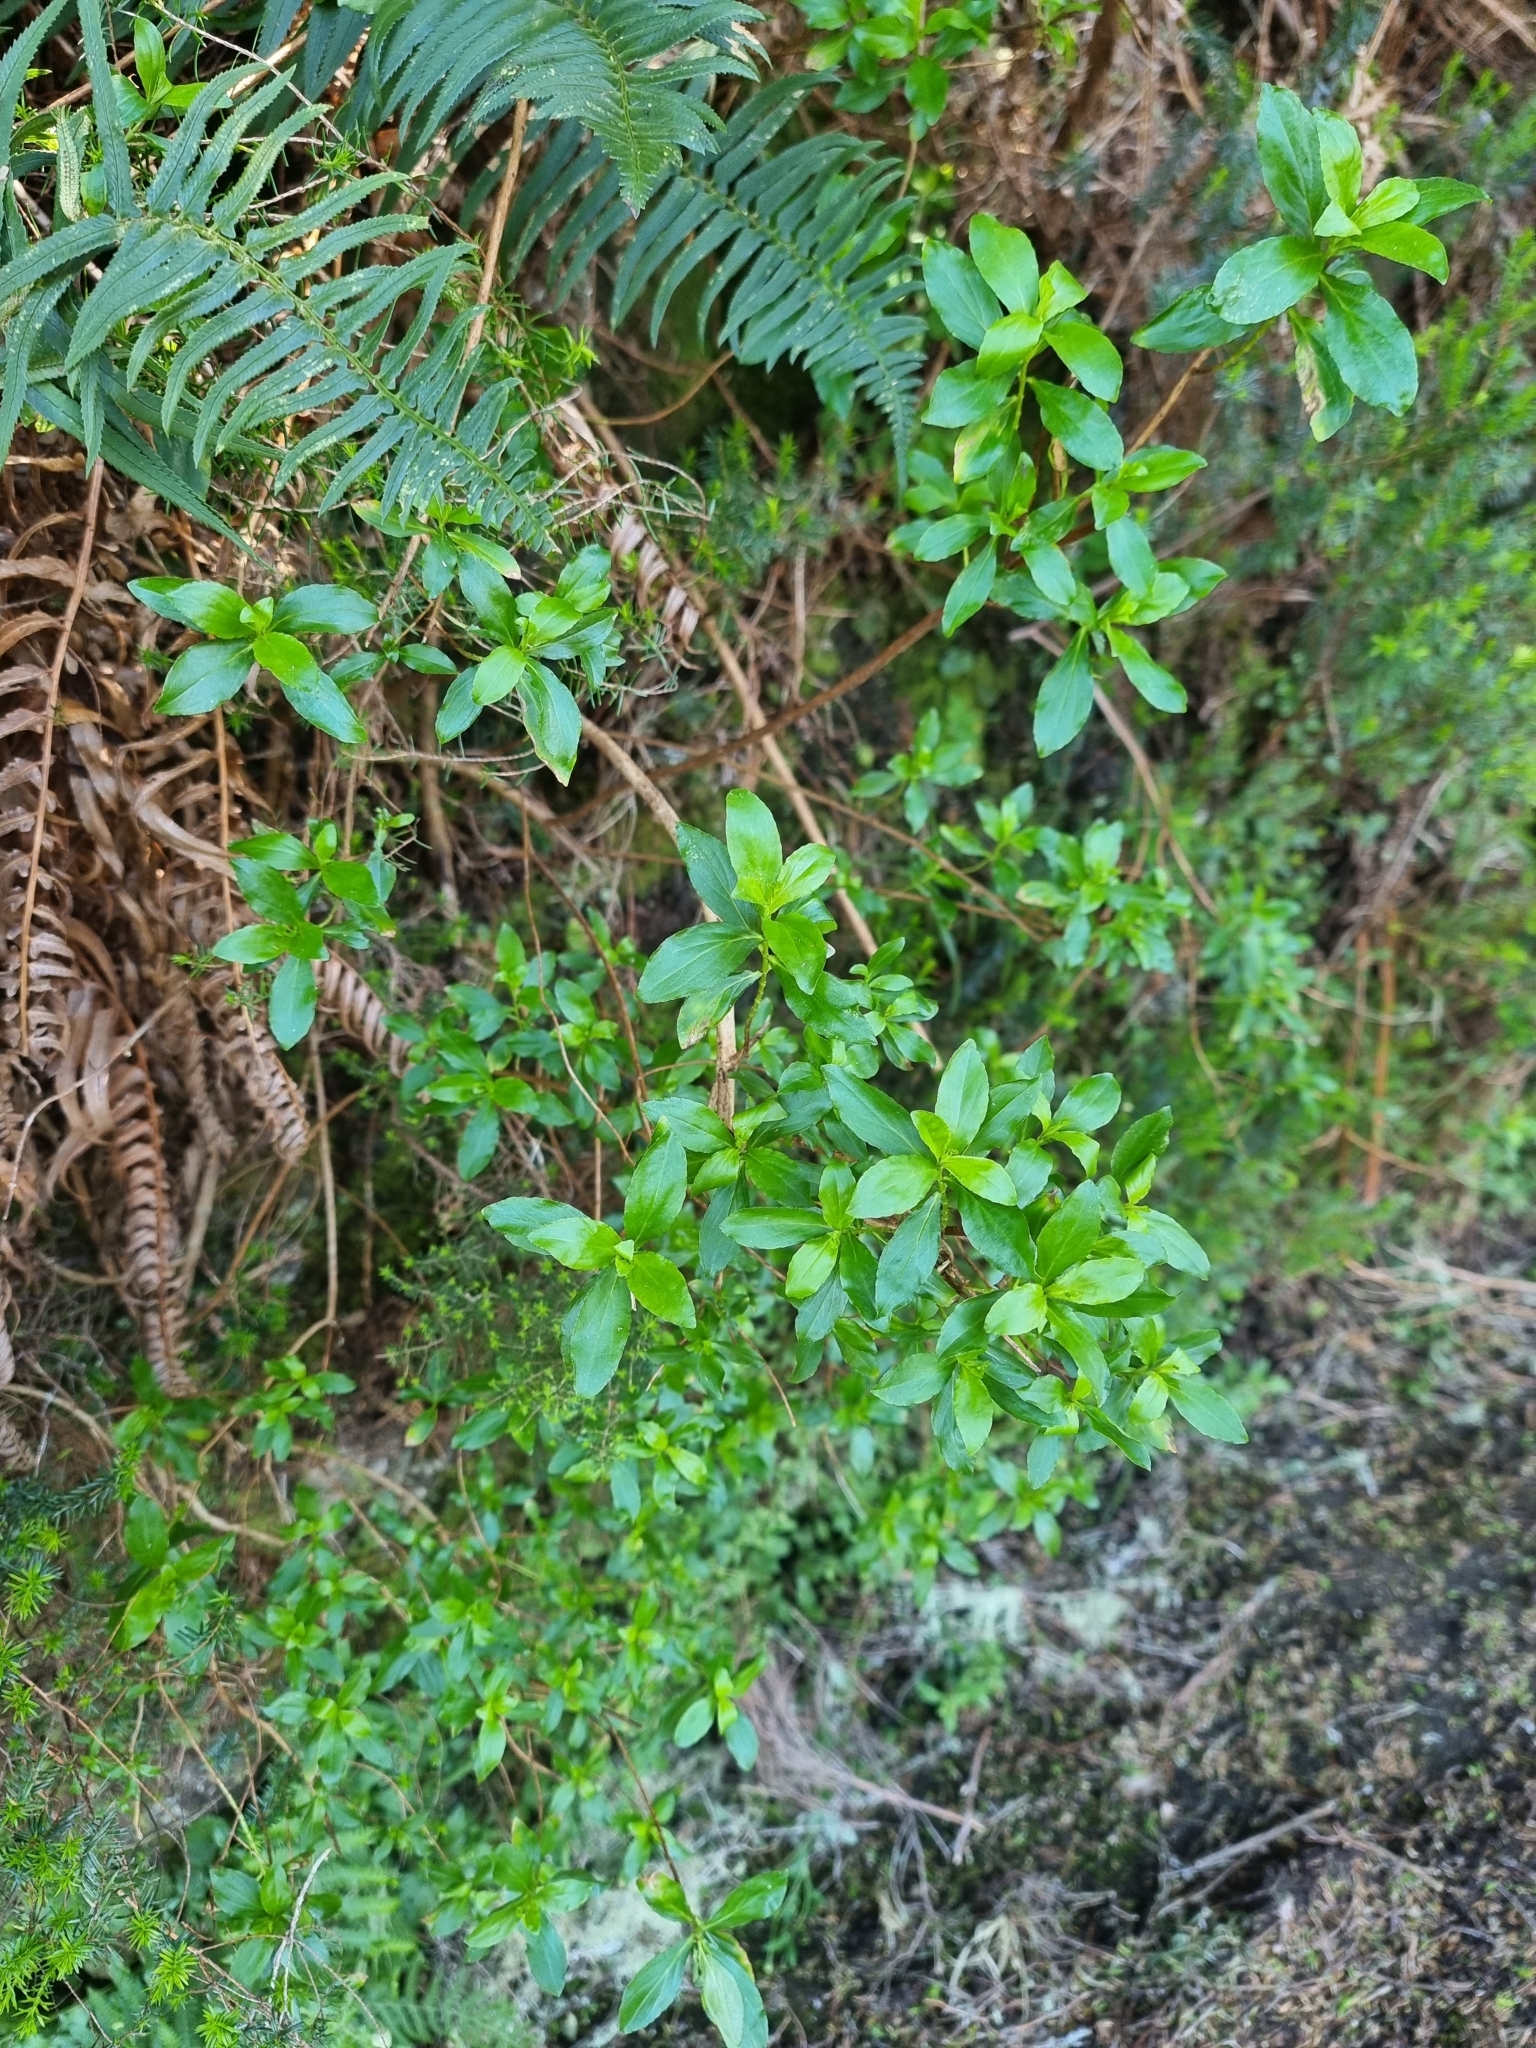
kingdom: Plantae
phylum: Tracheophyta
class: Magnoliopsida
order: Malpighiales
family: Hypericaceae
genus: Hypericum
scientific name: Hypericum glandulosum
